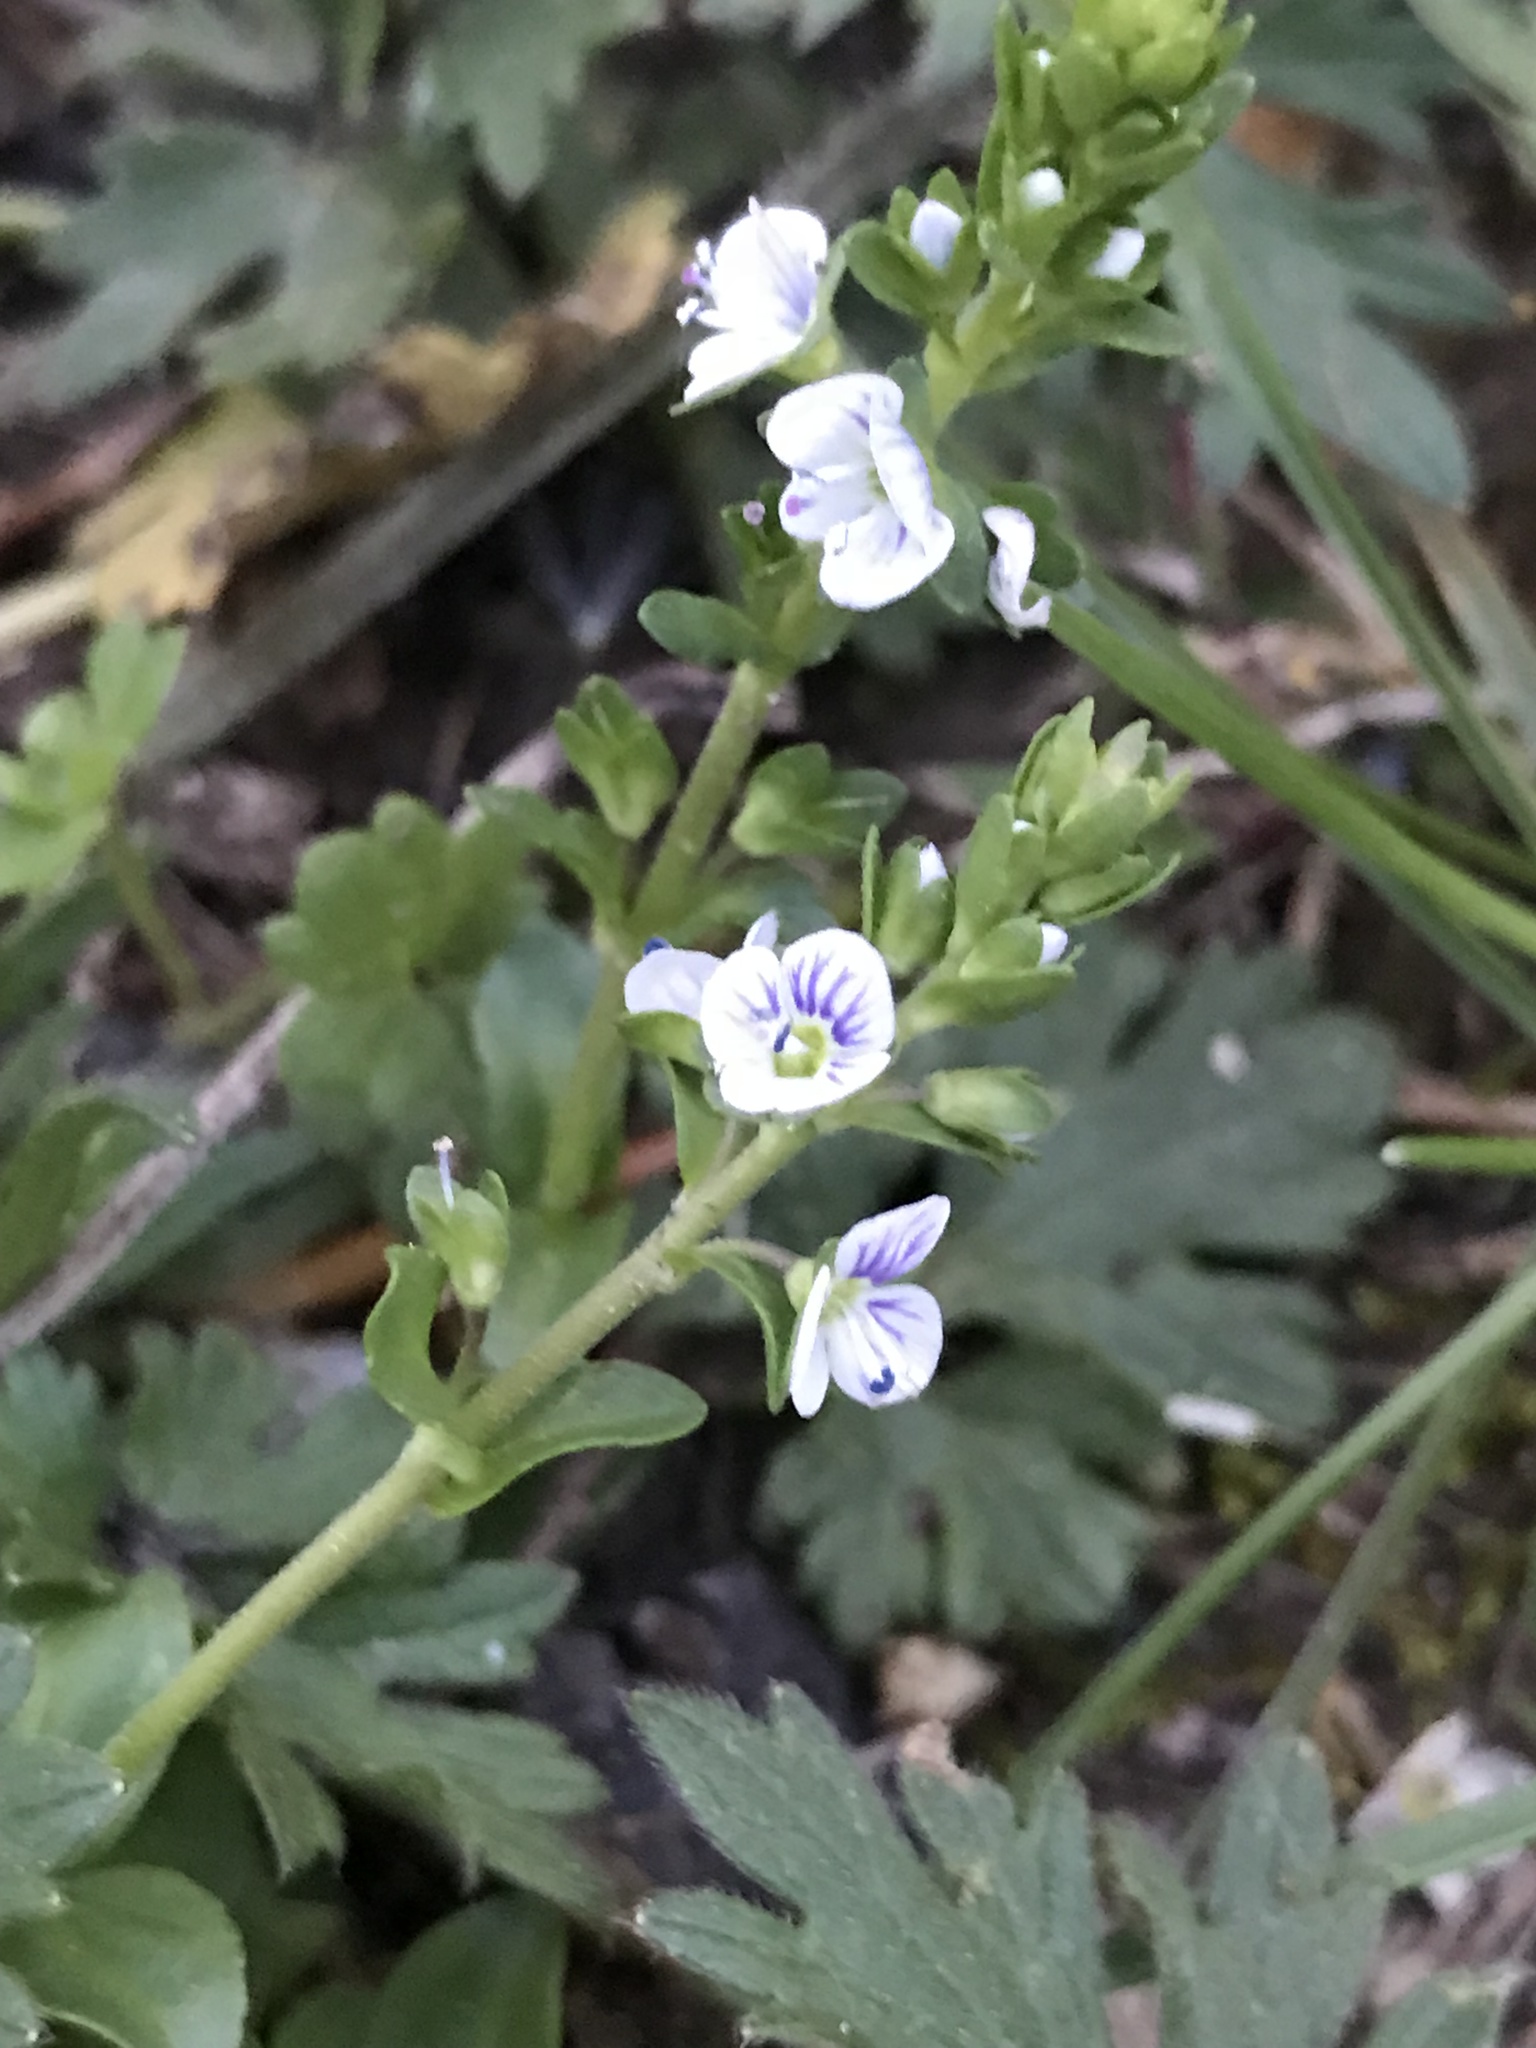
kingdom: Plantae
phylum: Tracheophyta
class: Magnoliopsida
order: Lamiales
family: Plantaginaceae
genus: Veronica
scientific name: Veronica serpyllifolia
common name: Thyme-leaved speedwell
